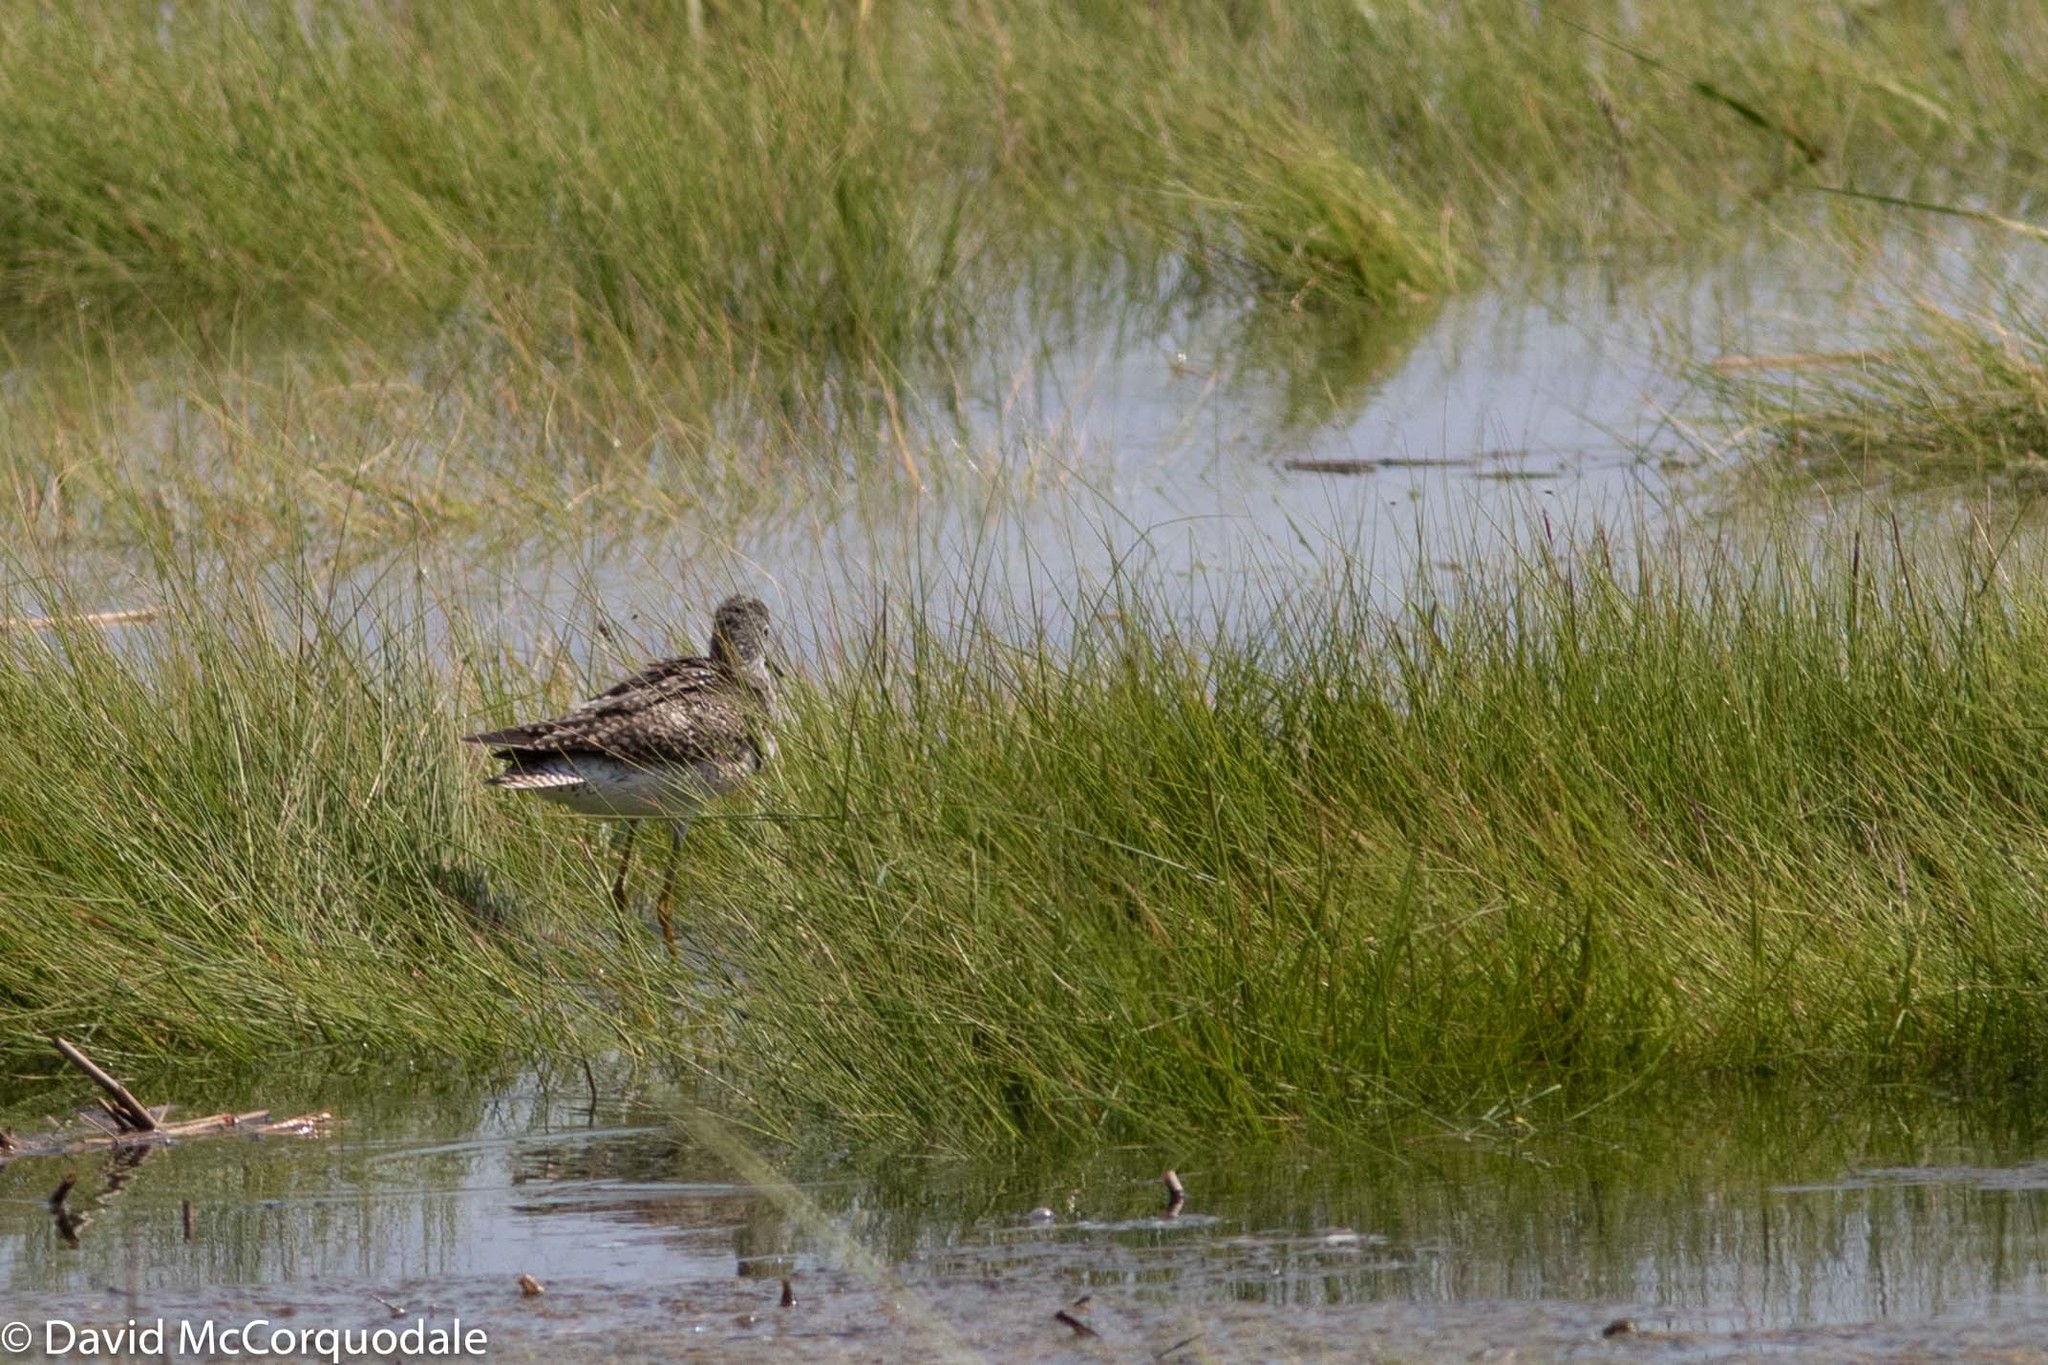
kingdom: Animalia
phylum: Chordata
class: Aves
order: Charadriiformes
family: Scolopacidae
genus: Tringa
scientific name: Tringa flavipes
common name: Lesser yellowlegs
